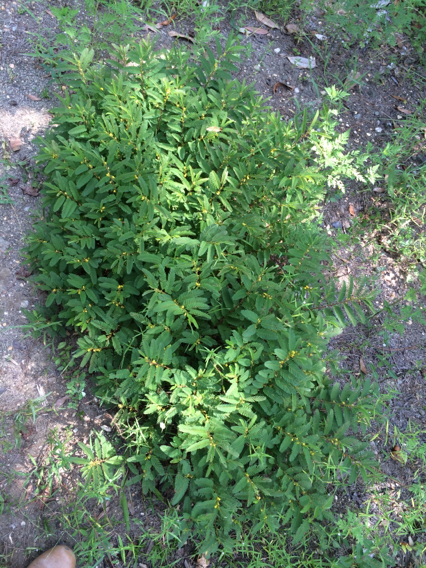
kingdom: Plantae
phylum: Tracheophyta
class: Magnoliopsida
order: Fabales
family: Fabaceae
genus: Chamaecrista
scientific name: Chamaecrista nictitans
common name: Sensitive cassia
